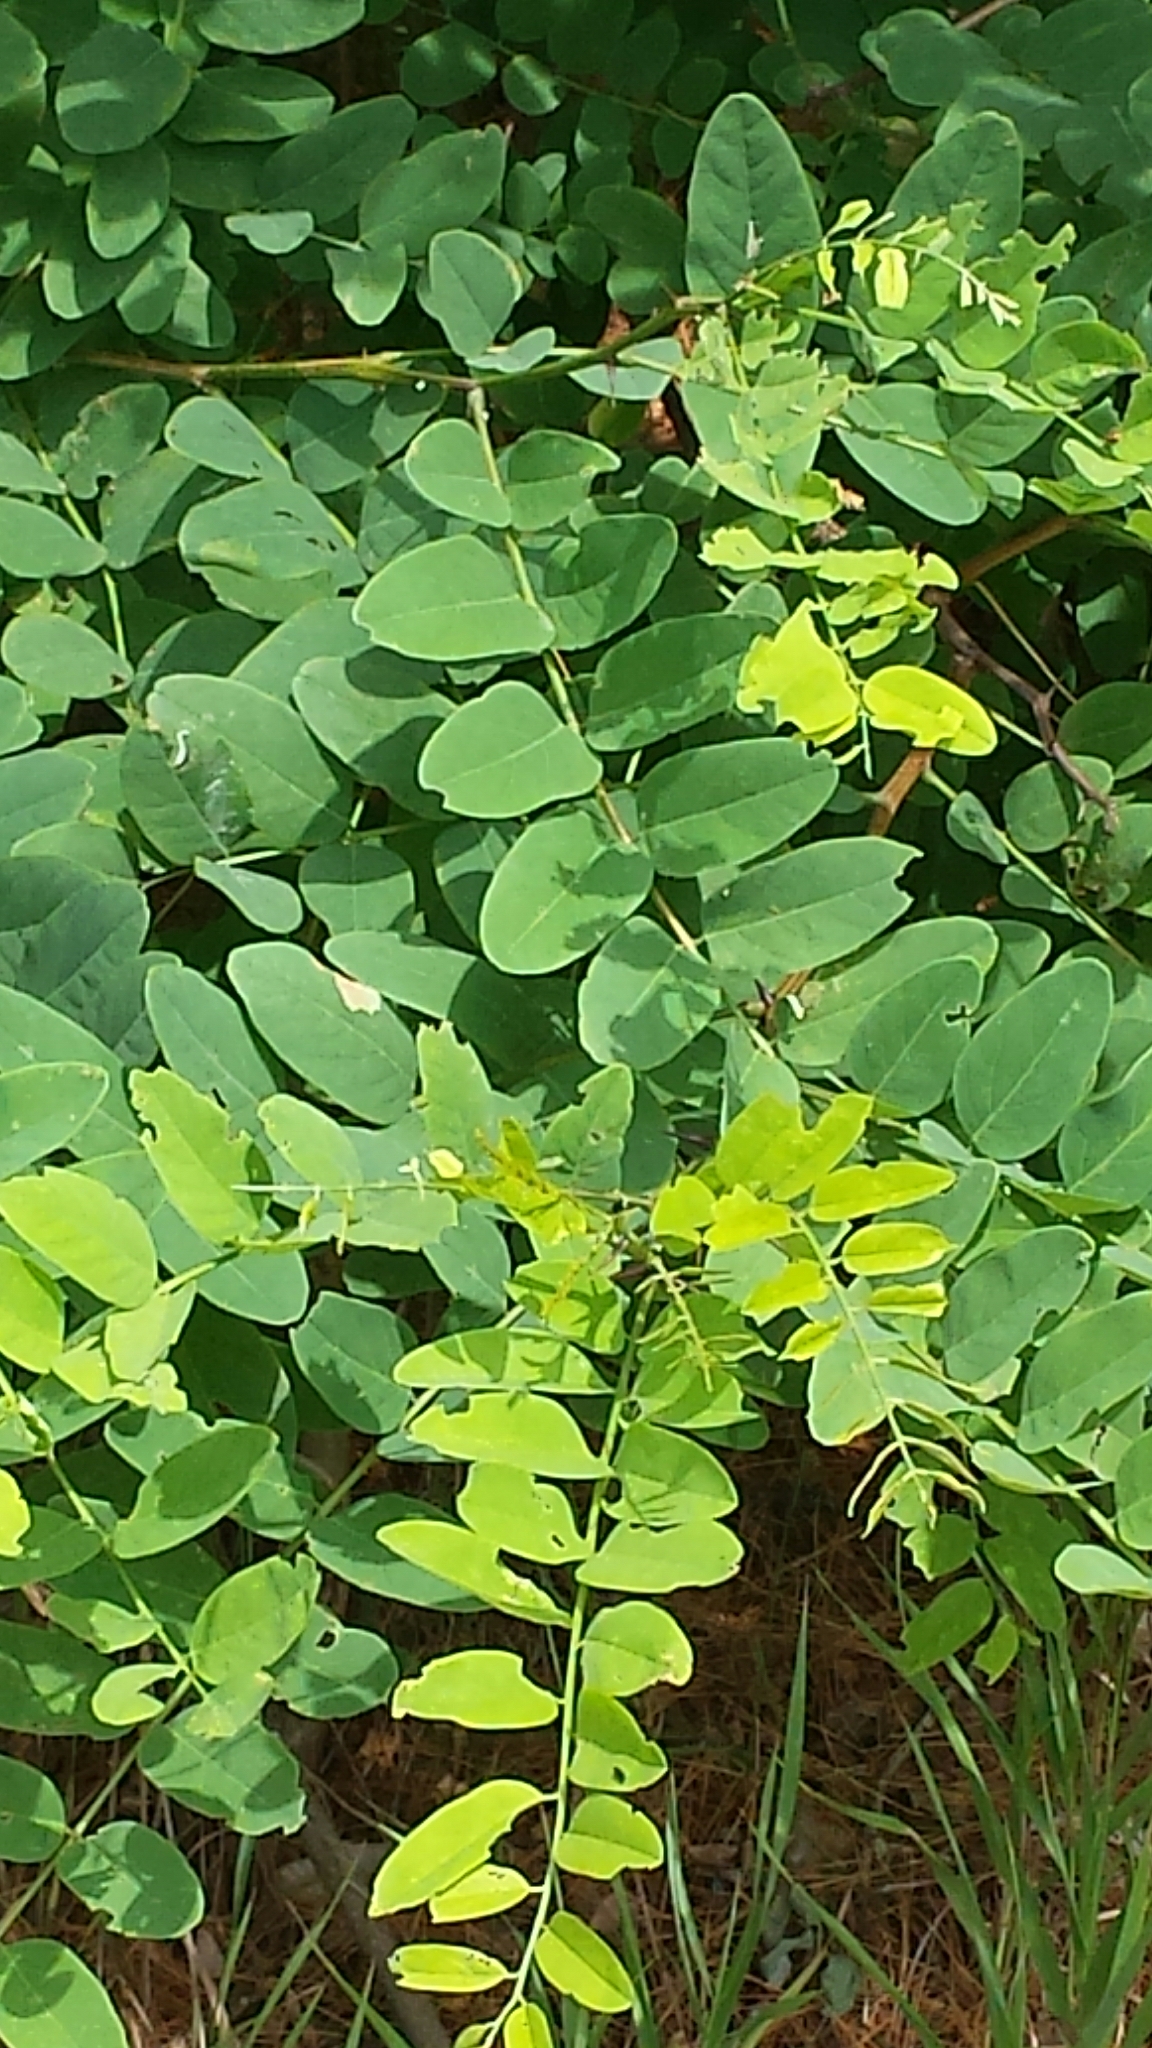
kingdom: Plantae
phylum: Tracheophyta
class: Magnoliopsida
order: Fabales
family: Fabaceae
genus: Robinia
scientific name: Robinia pseudoacacia
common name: Black locust
